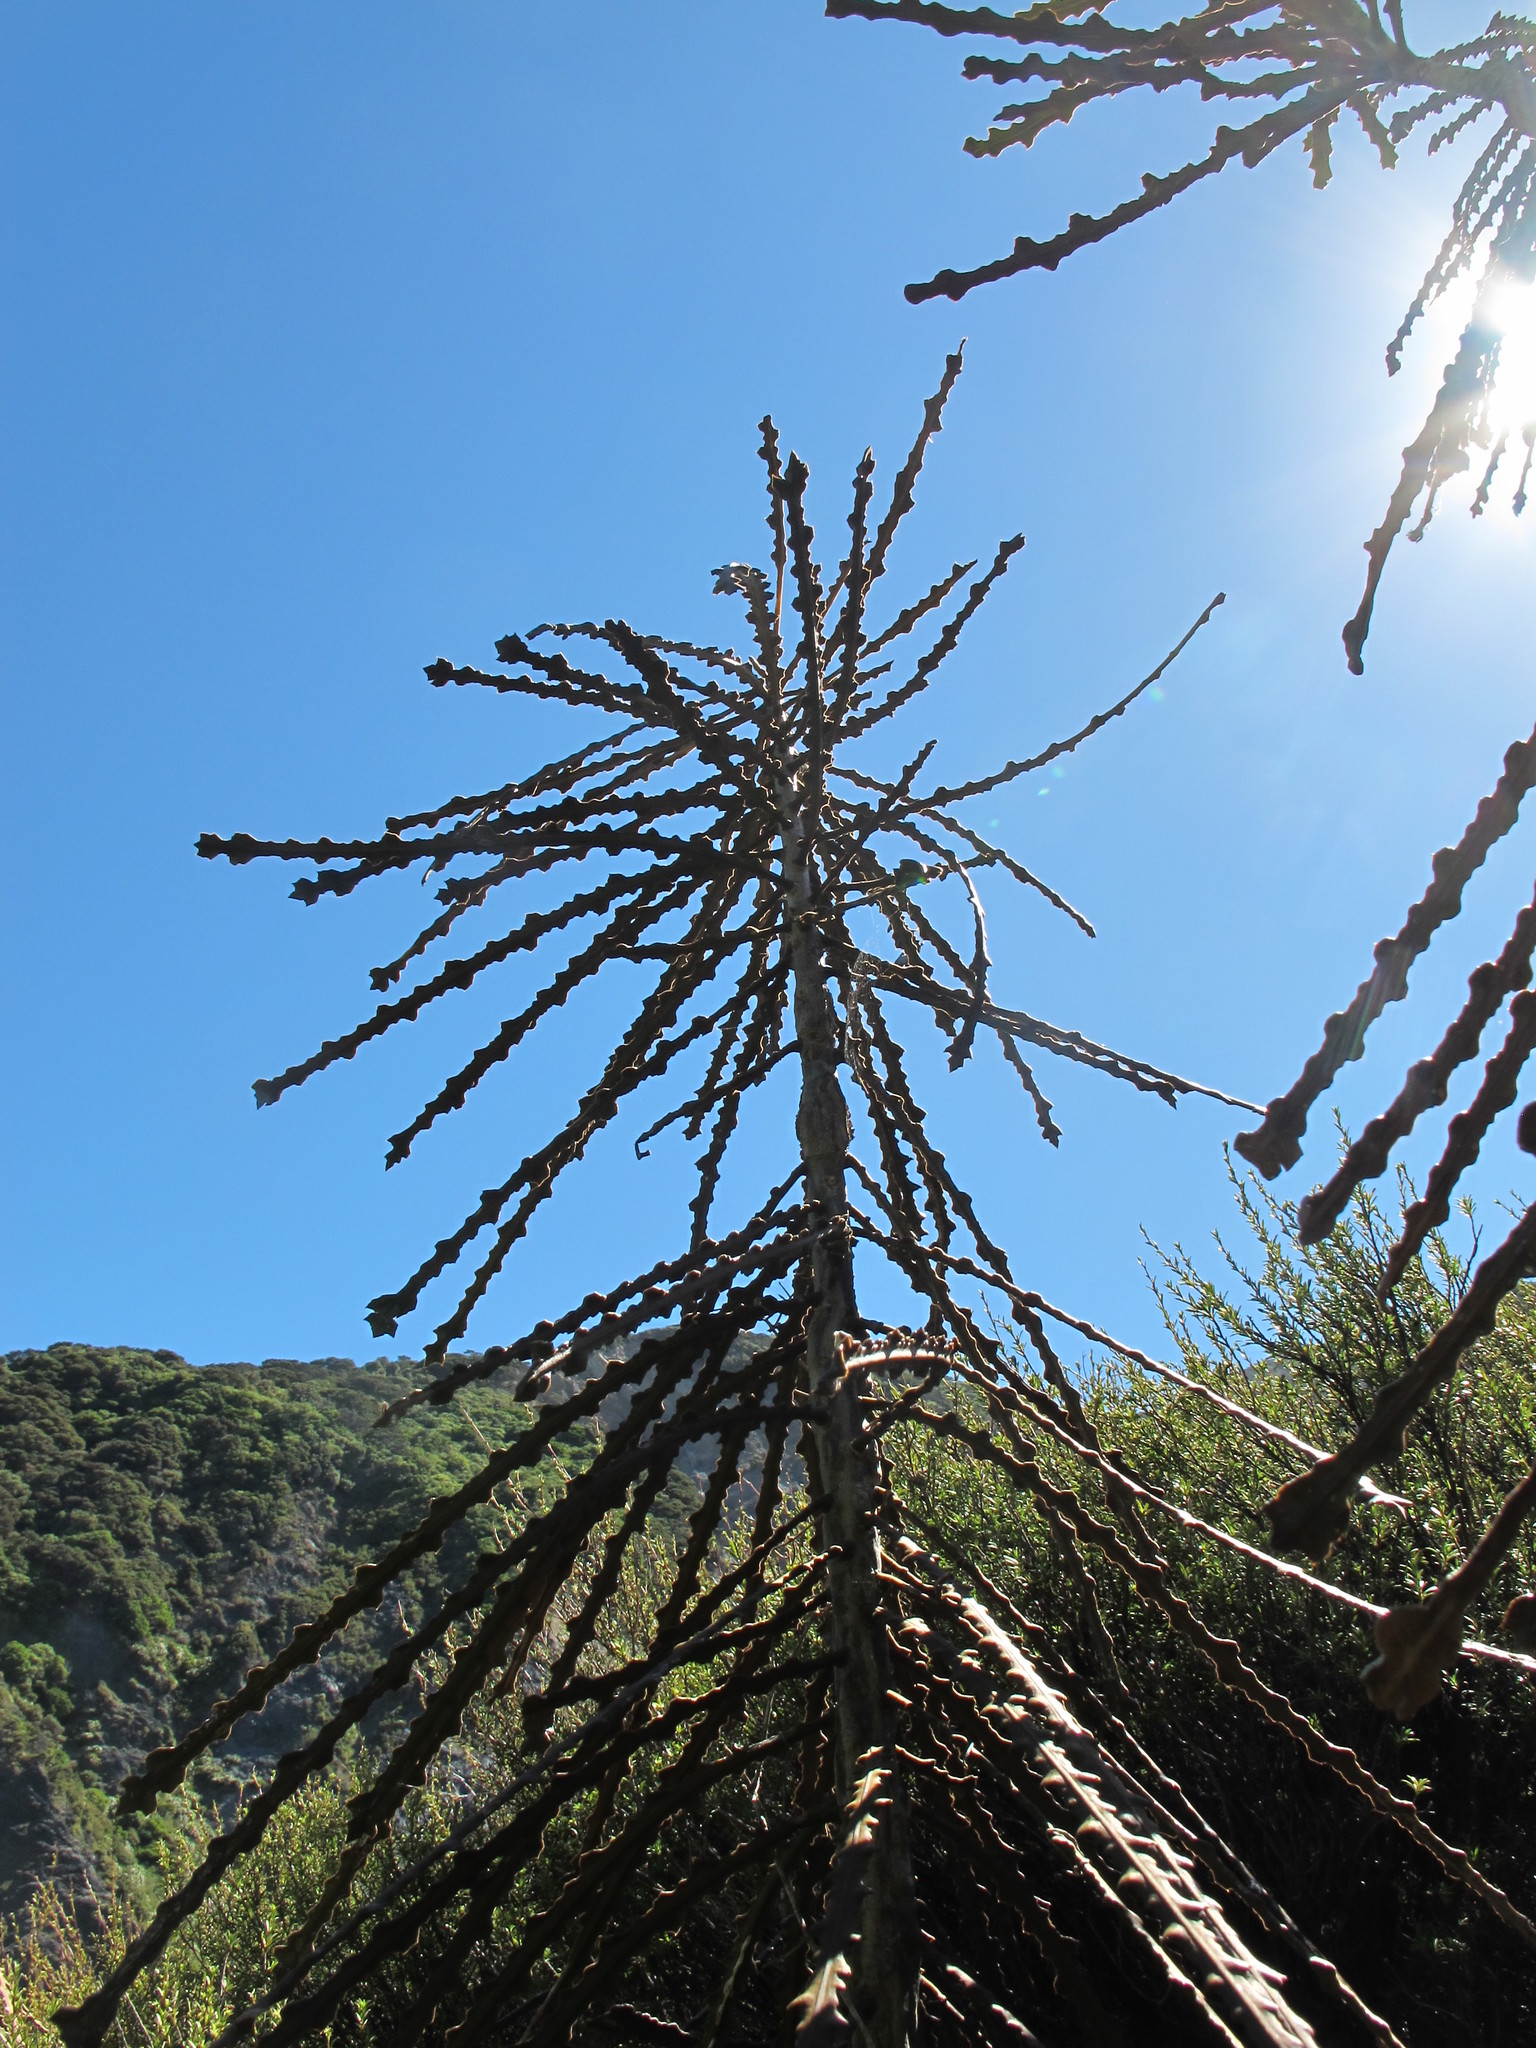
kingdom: Plantae
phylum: Tracheophyta
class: Magnoliopsida
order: Apiales
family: Araliaceae
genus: Pseudopanax
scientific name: Pseudopanax ferox
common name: Fierce lancewood
